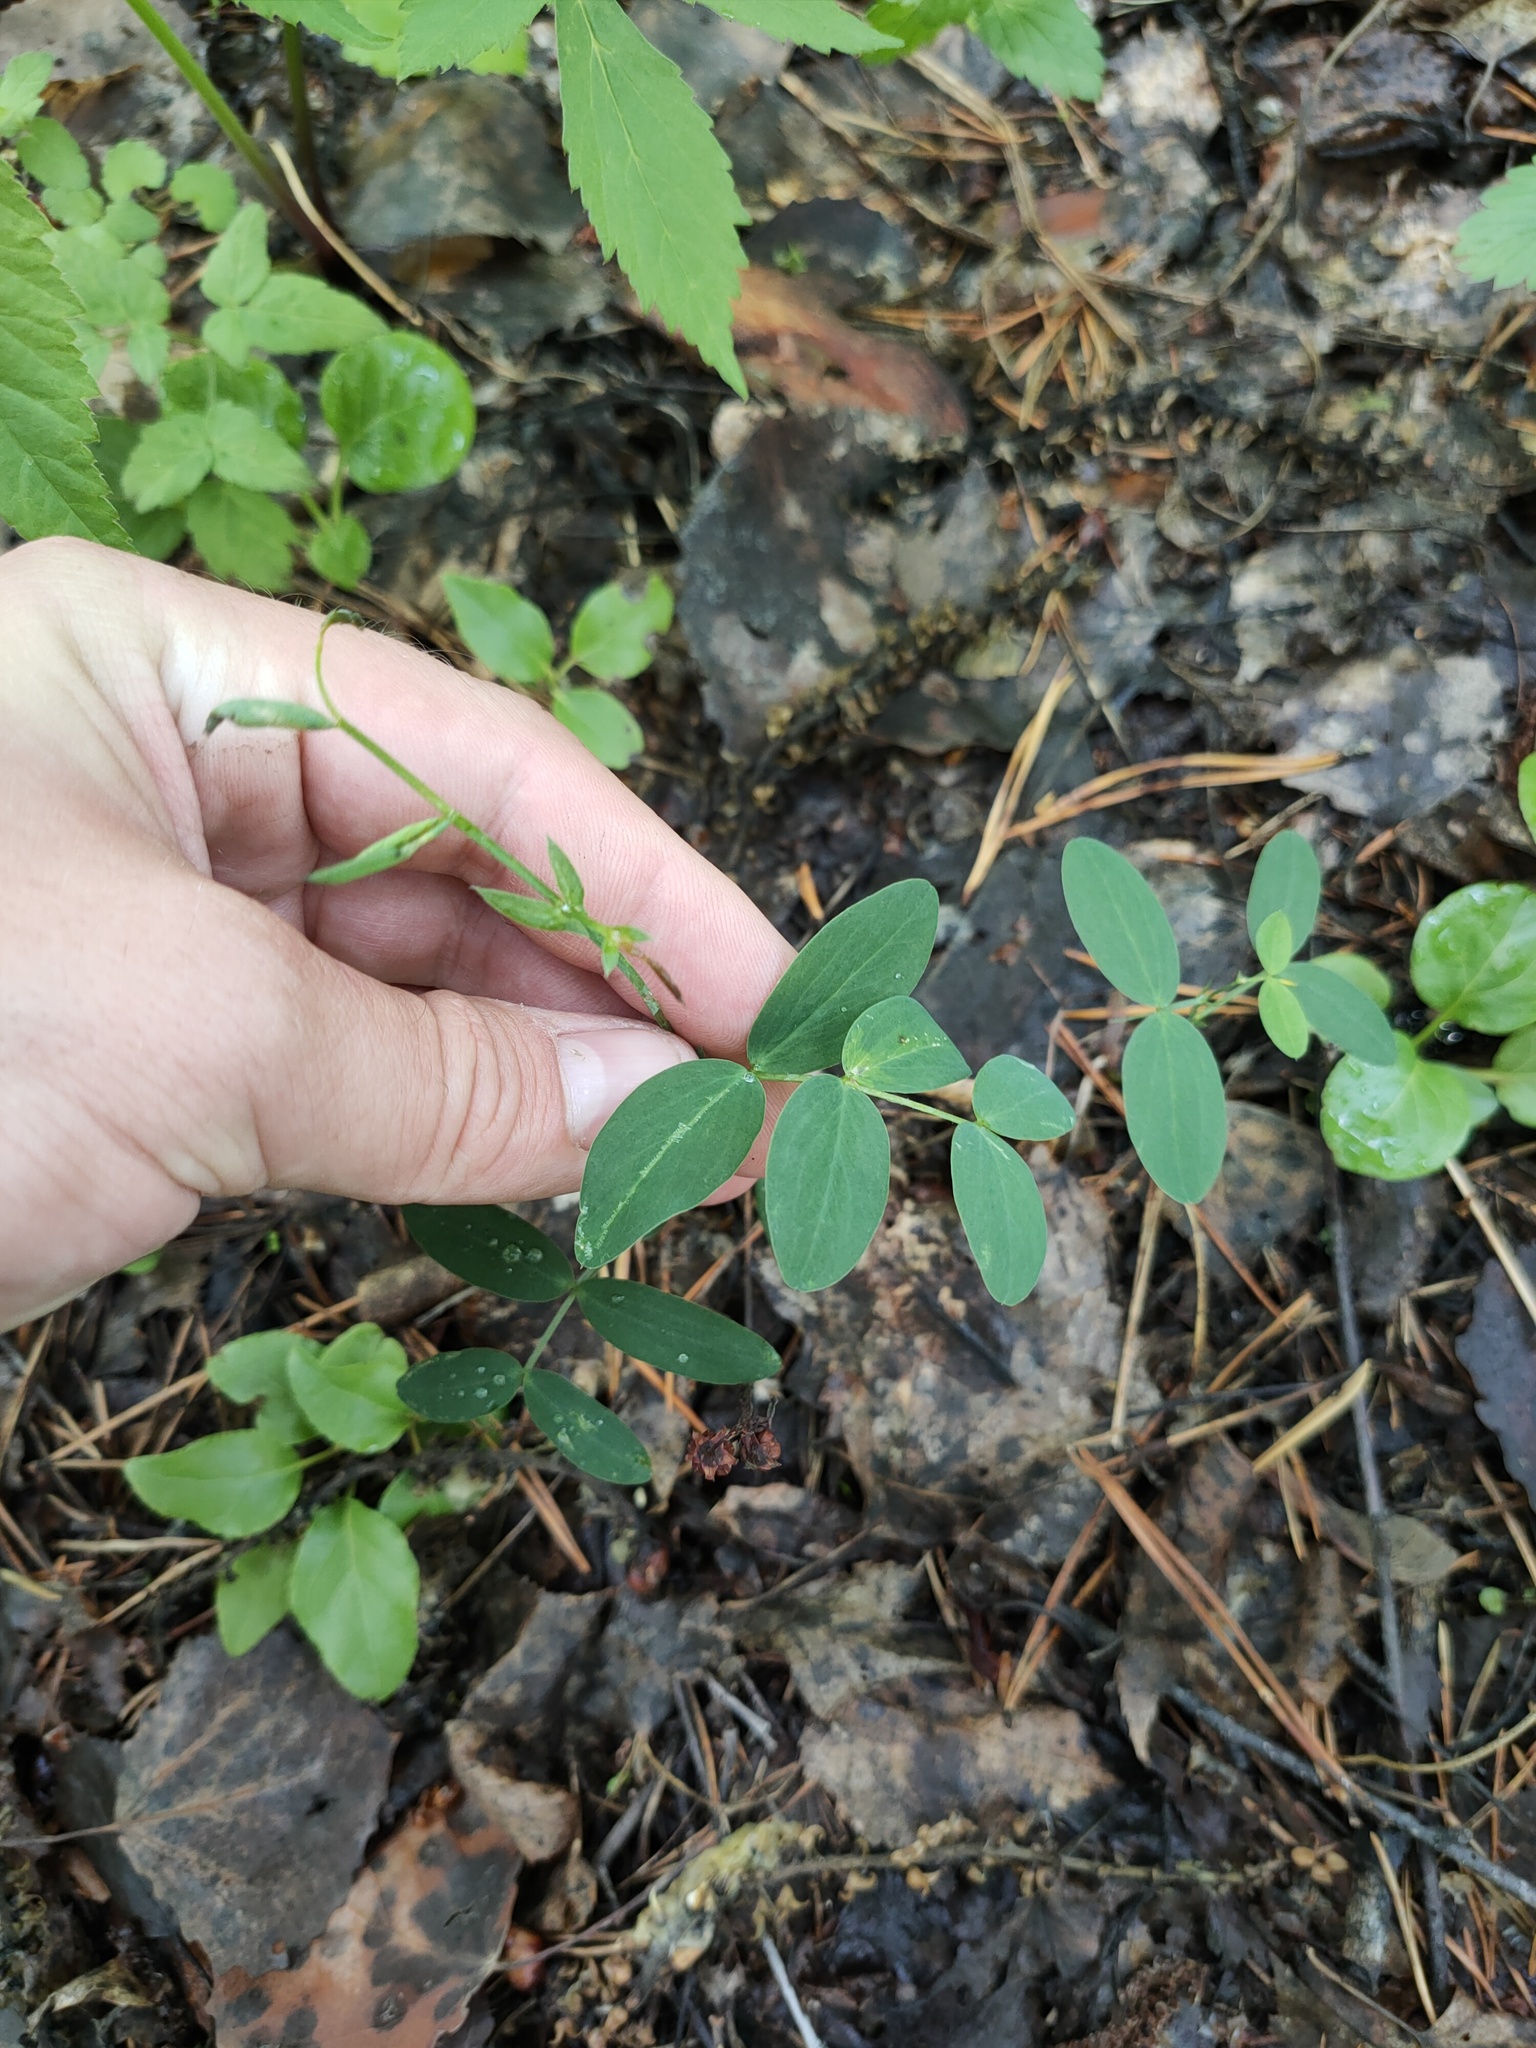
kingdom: Plantae
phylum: Tracheophyta
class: Magnoliopsida
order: Fabales
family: Fabaceae
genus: Lathyrus
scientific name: Lathyrus pisiformis
